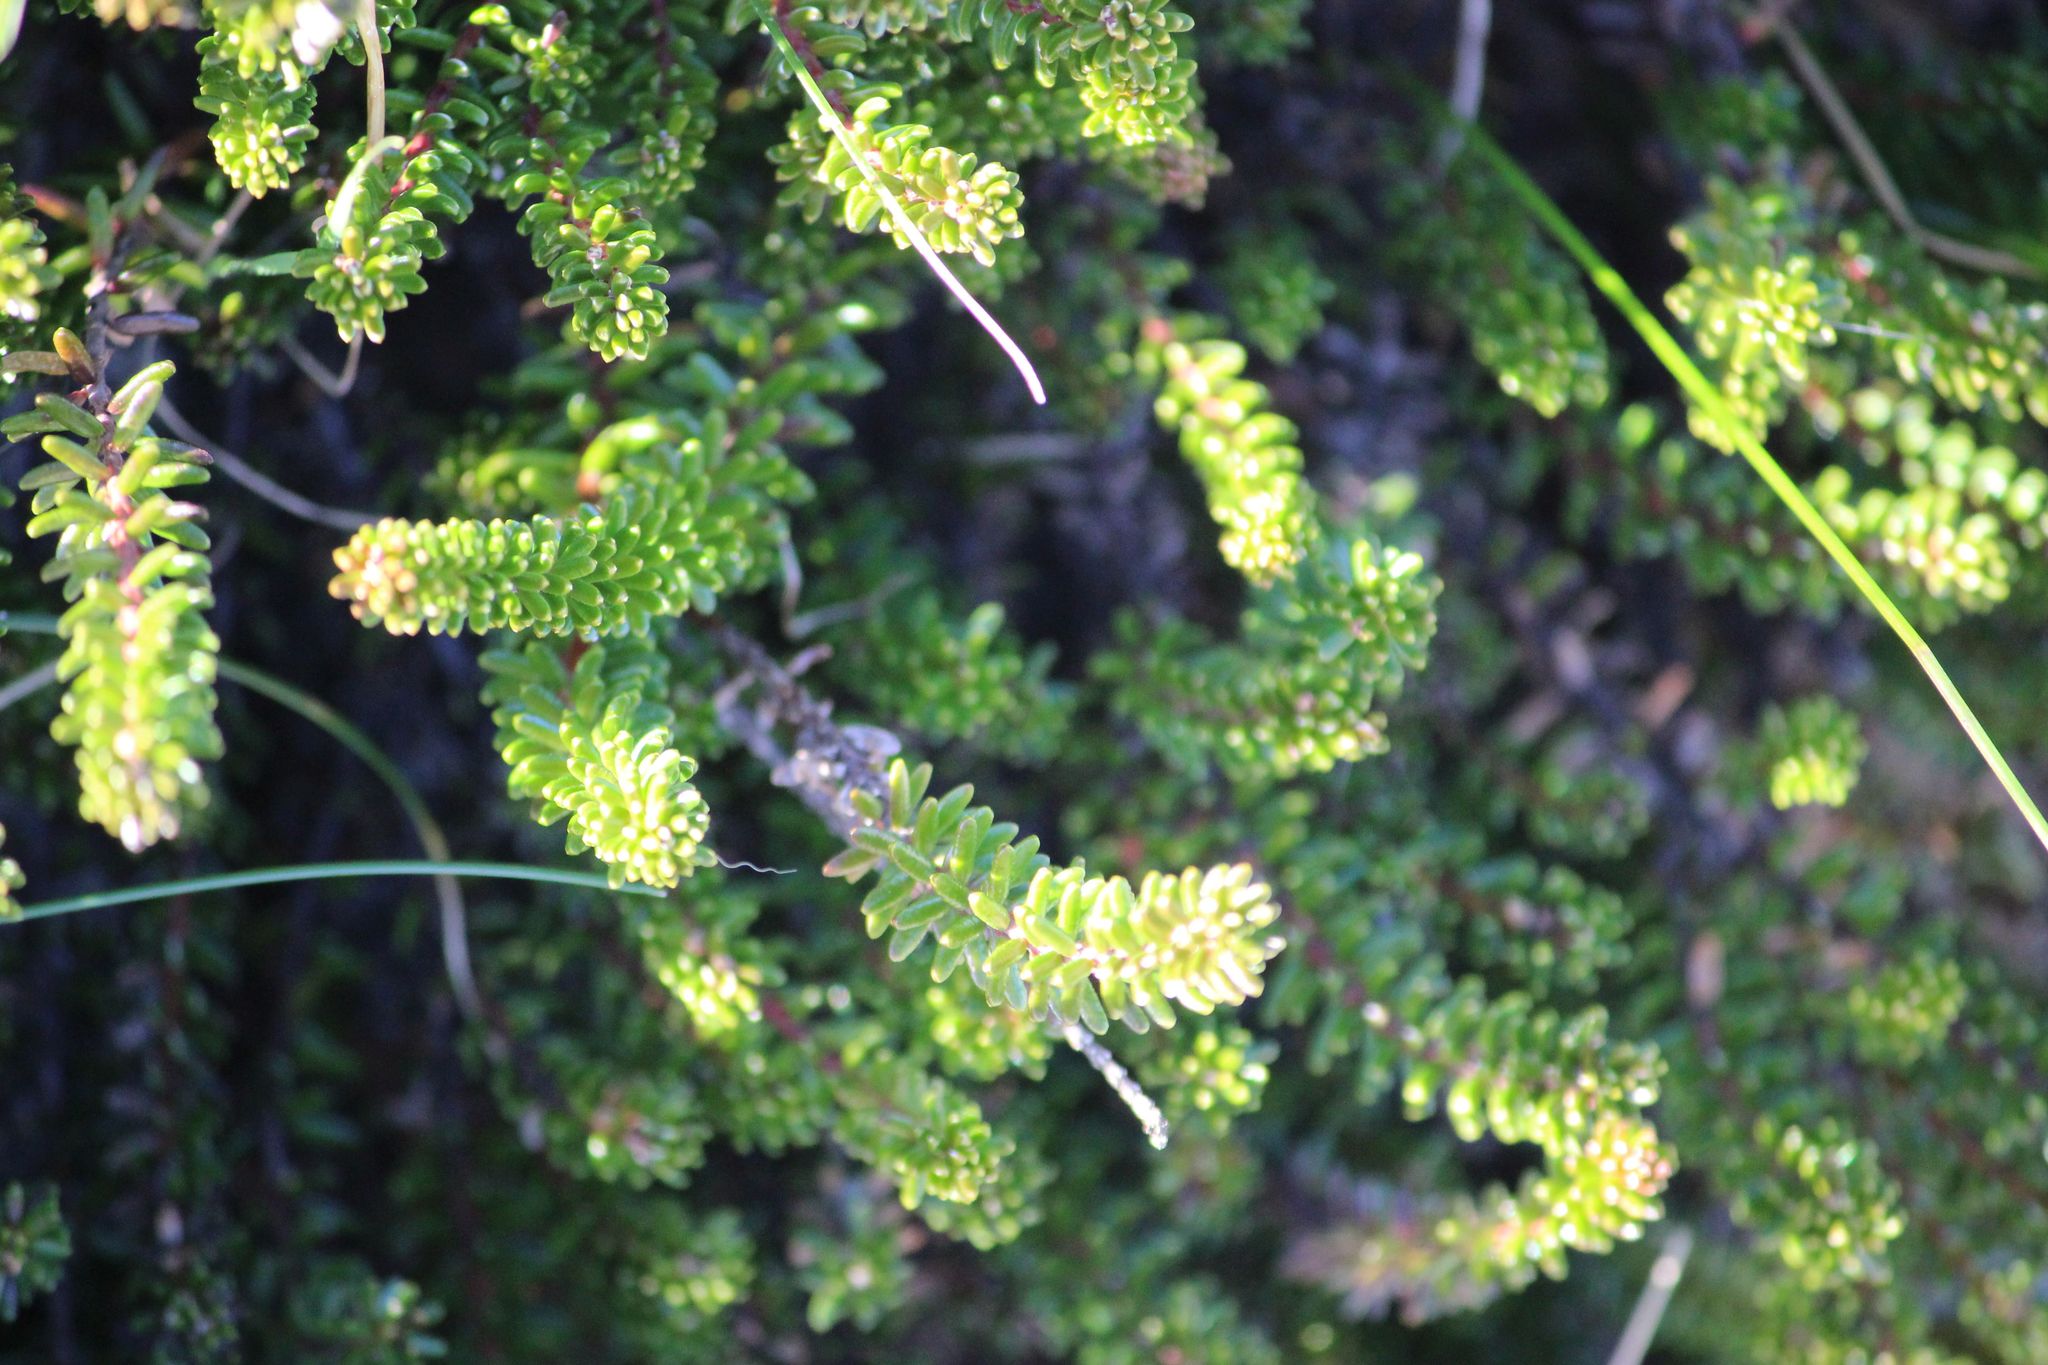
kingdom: Plantae
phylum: Tracheophyta
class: Magnoliopsida
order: Ericales
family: Ericaceae
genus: Empetrum
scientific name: Empetrum nigrum
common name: Black crowberry
